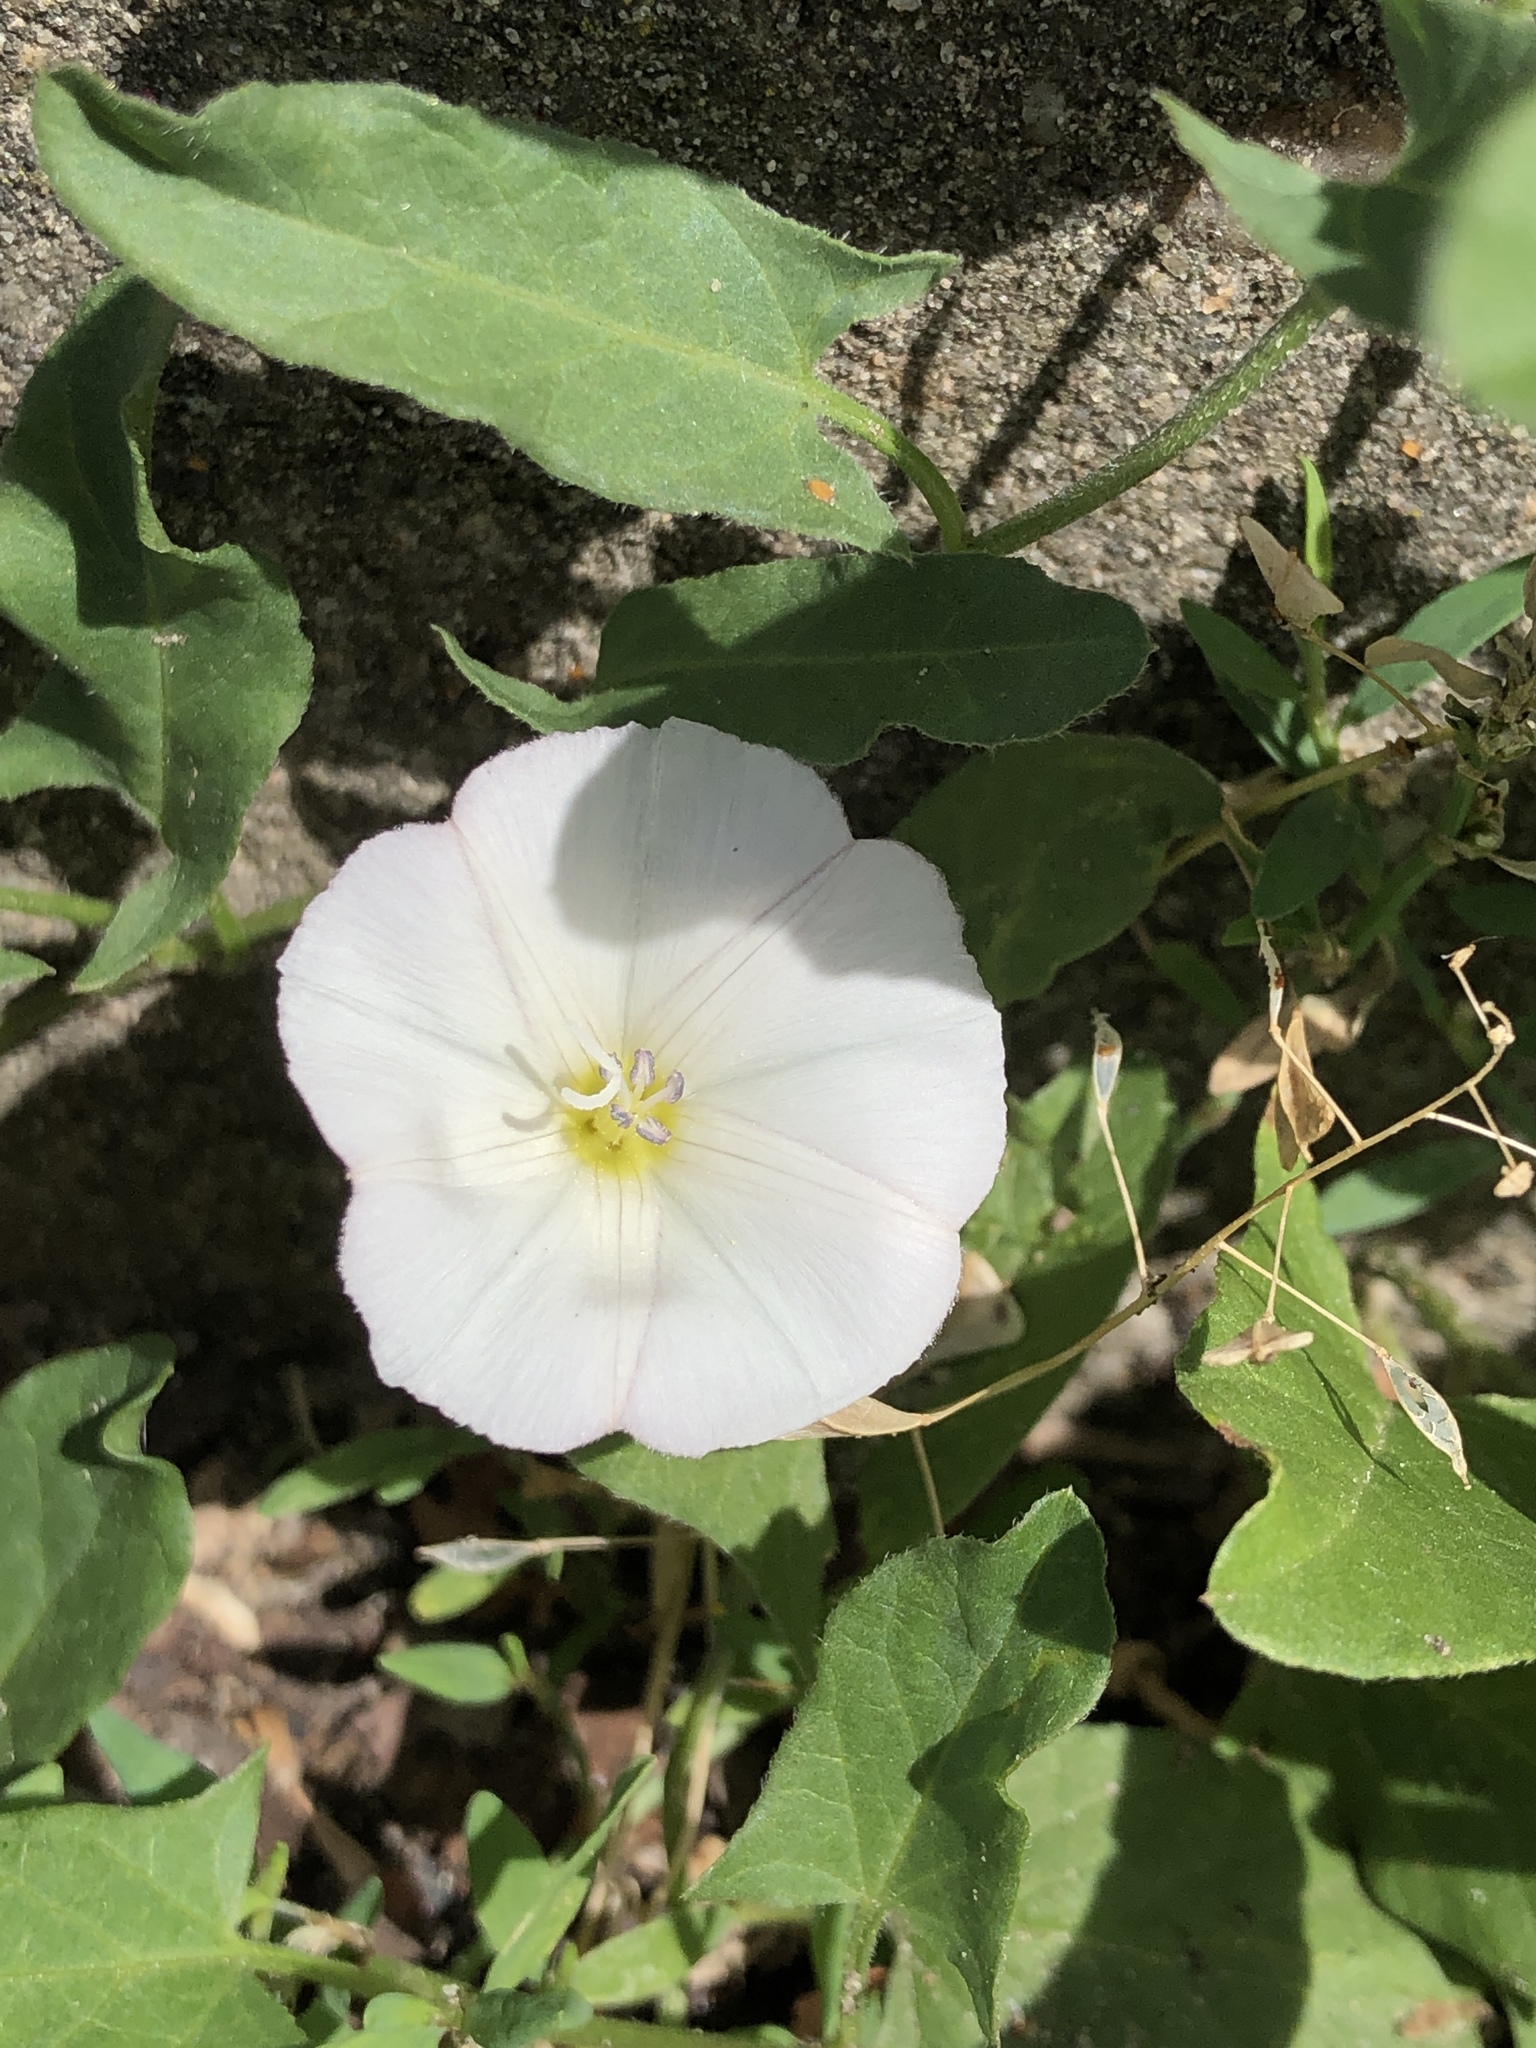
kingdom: Plantae
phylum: Tracheophyta
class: Magnoliopsida
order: Solanales
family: Convolvulaceae
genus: Convolvulus
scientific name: Convolvulus arvensis
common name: Field bindweed
